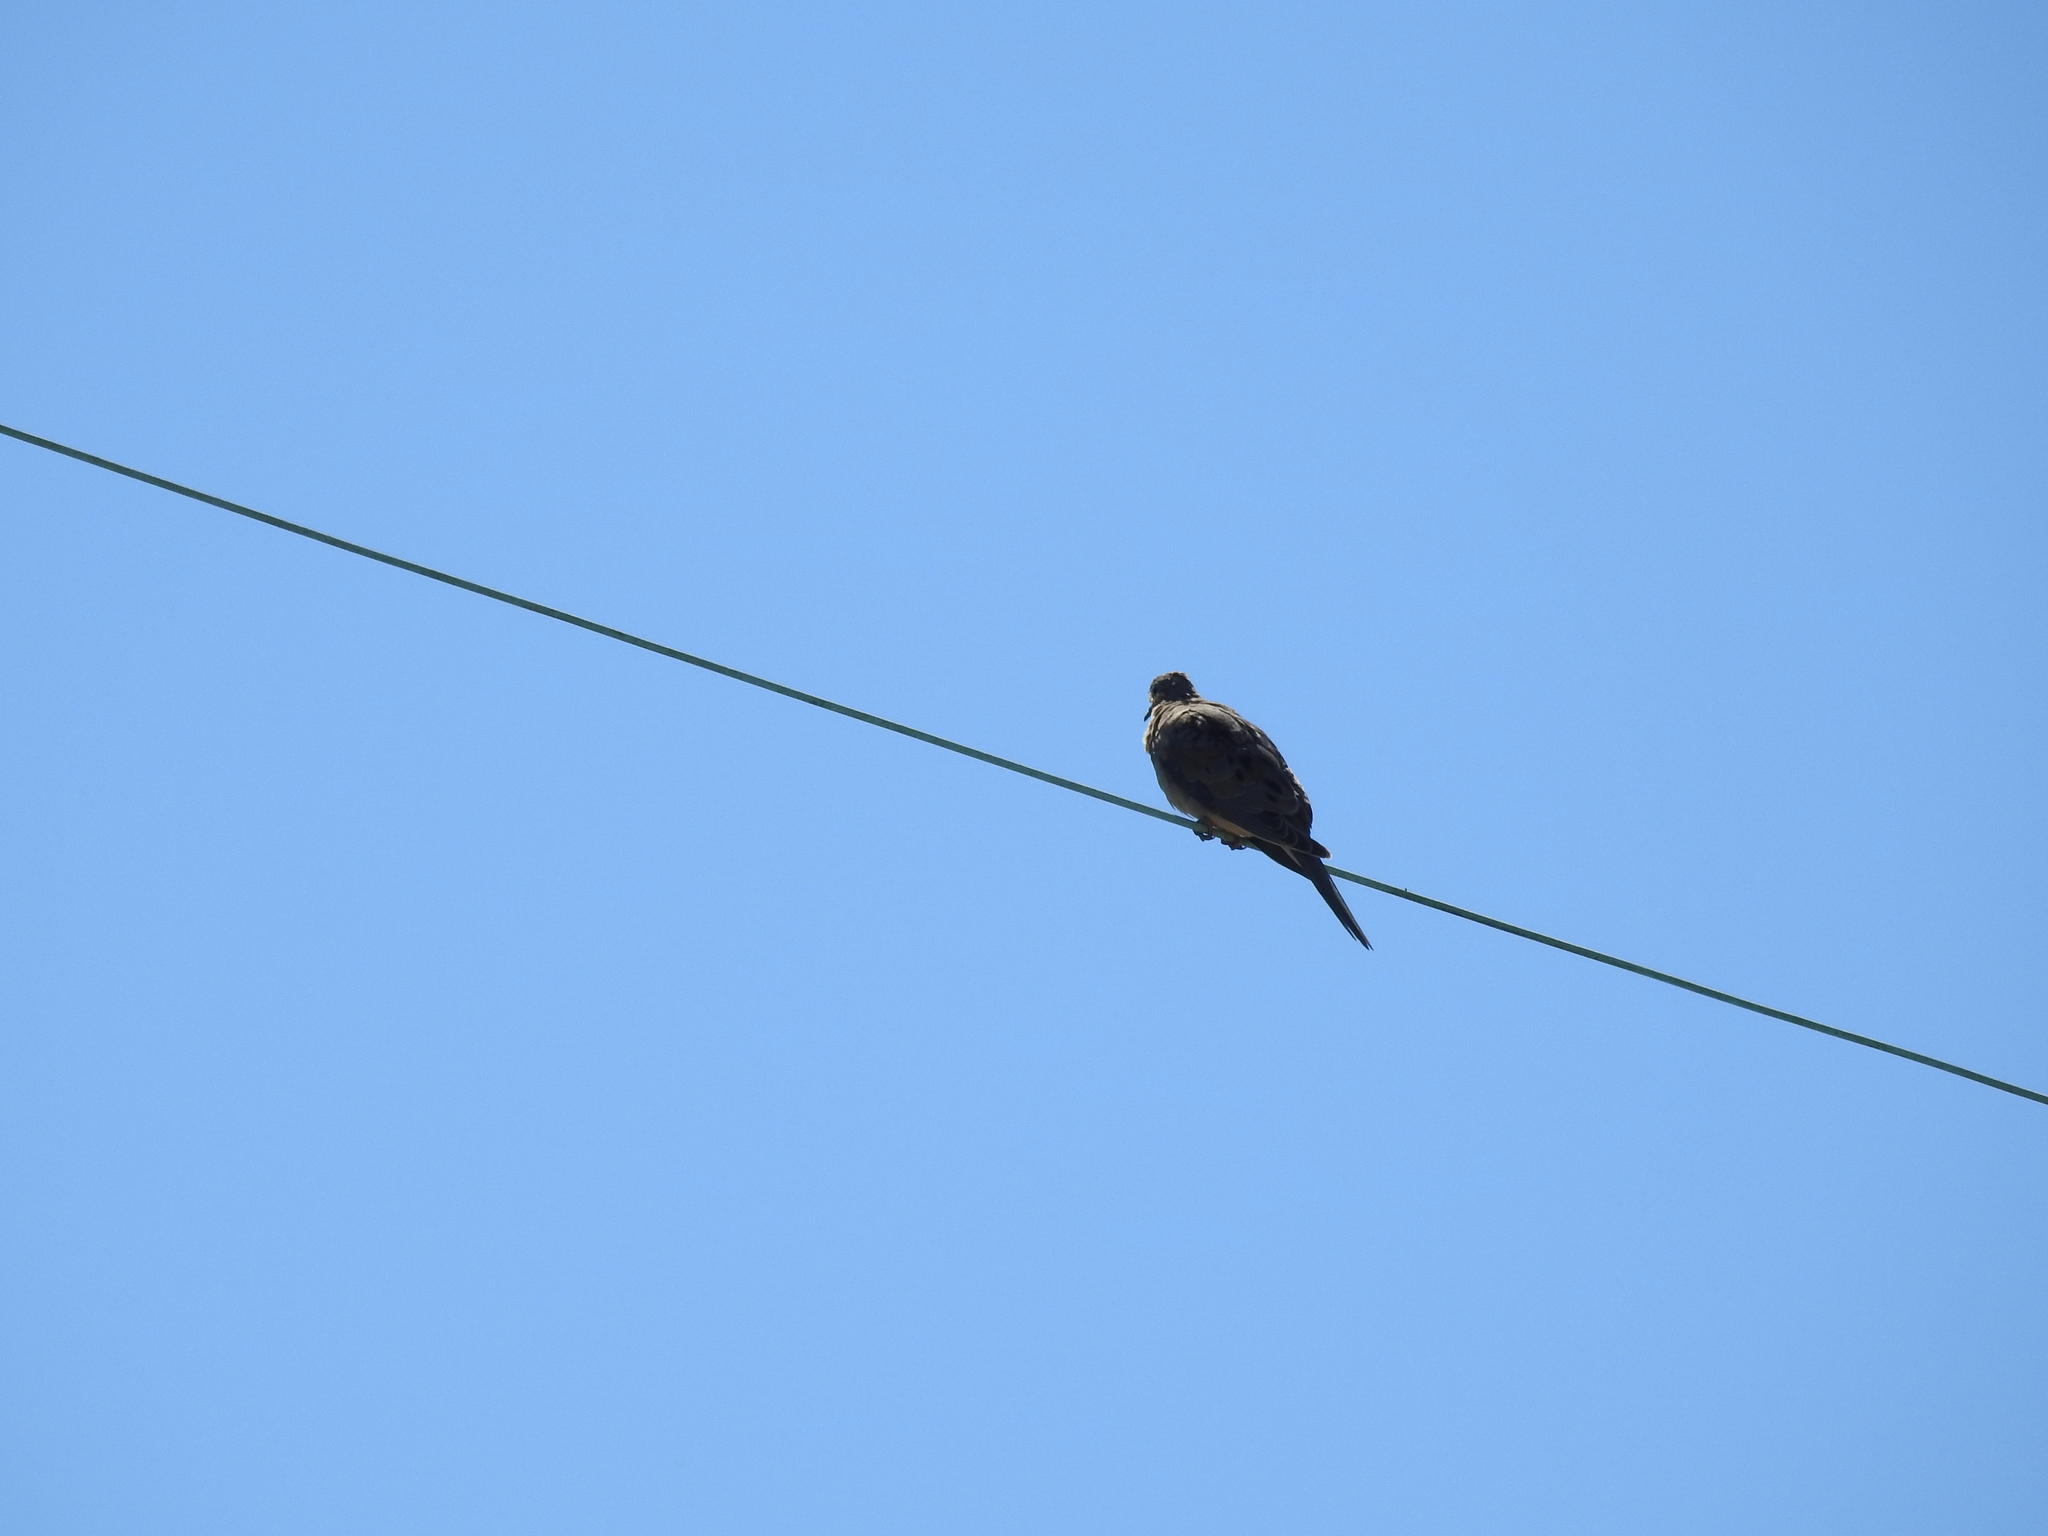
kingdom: Animalia
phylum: Chordata
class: Aves
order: Columbiformes
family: Columbidae
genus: Zenaida
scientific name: Zenaida macroura
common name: Mourning dove
